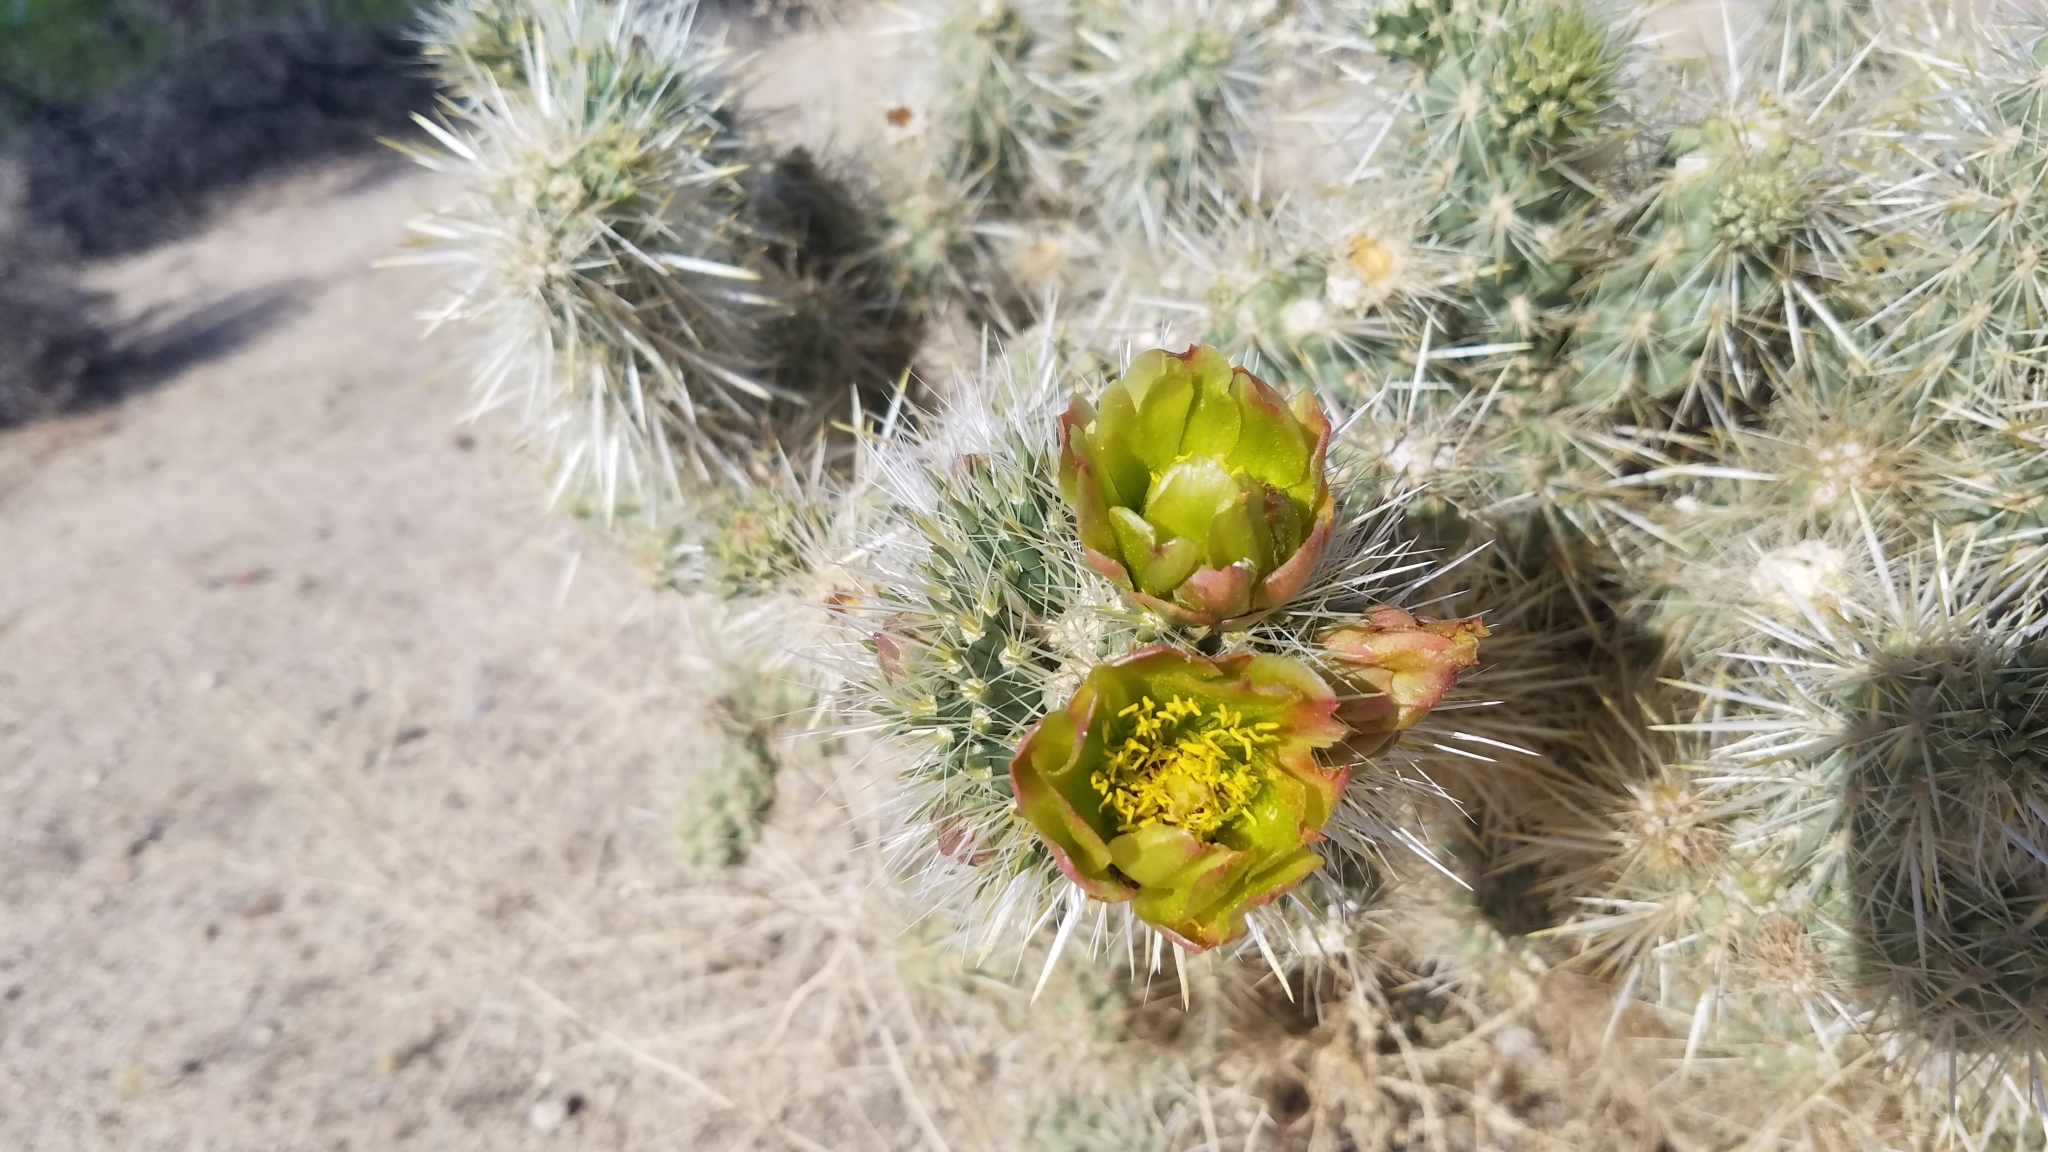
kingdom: Plantae
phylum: Tracheophyta
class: Magnoliopsida
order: Caryophyllales
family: Cactaceae
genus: Cylindropuntia
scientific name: Cylindropuntia echinocarpa
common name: Ground cholla
